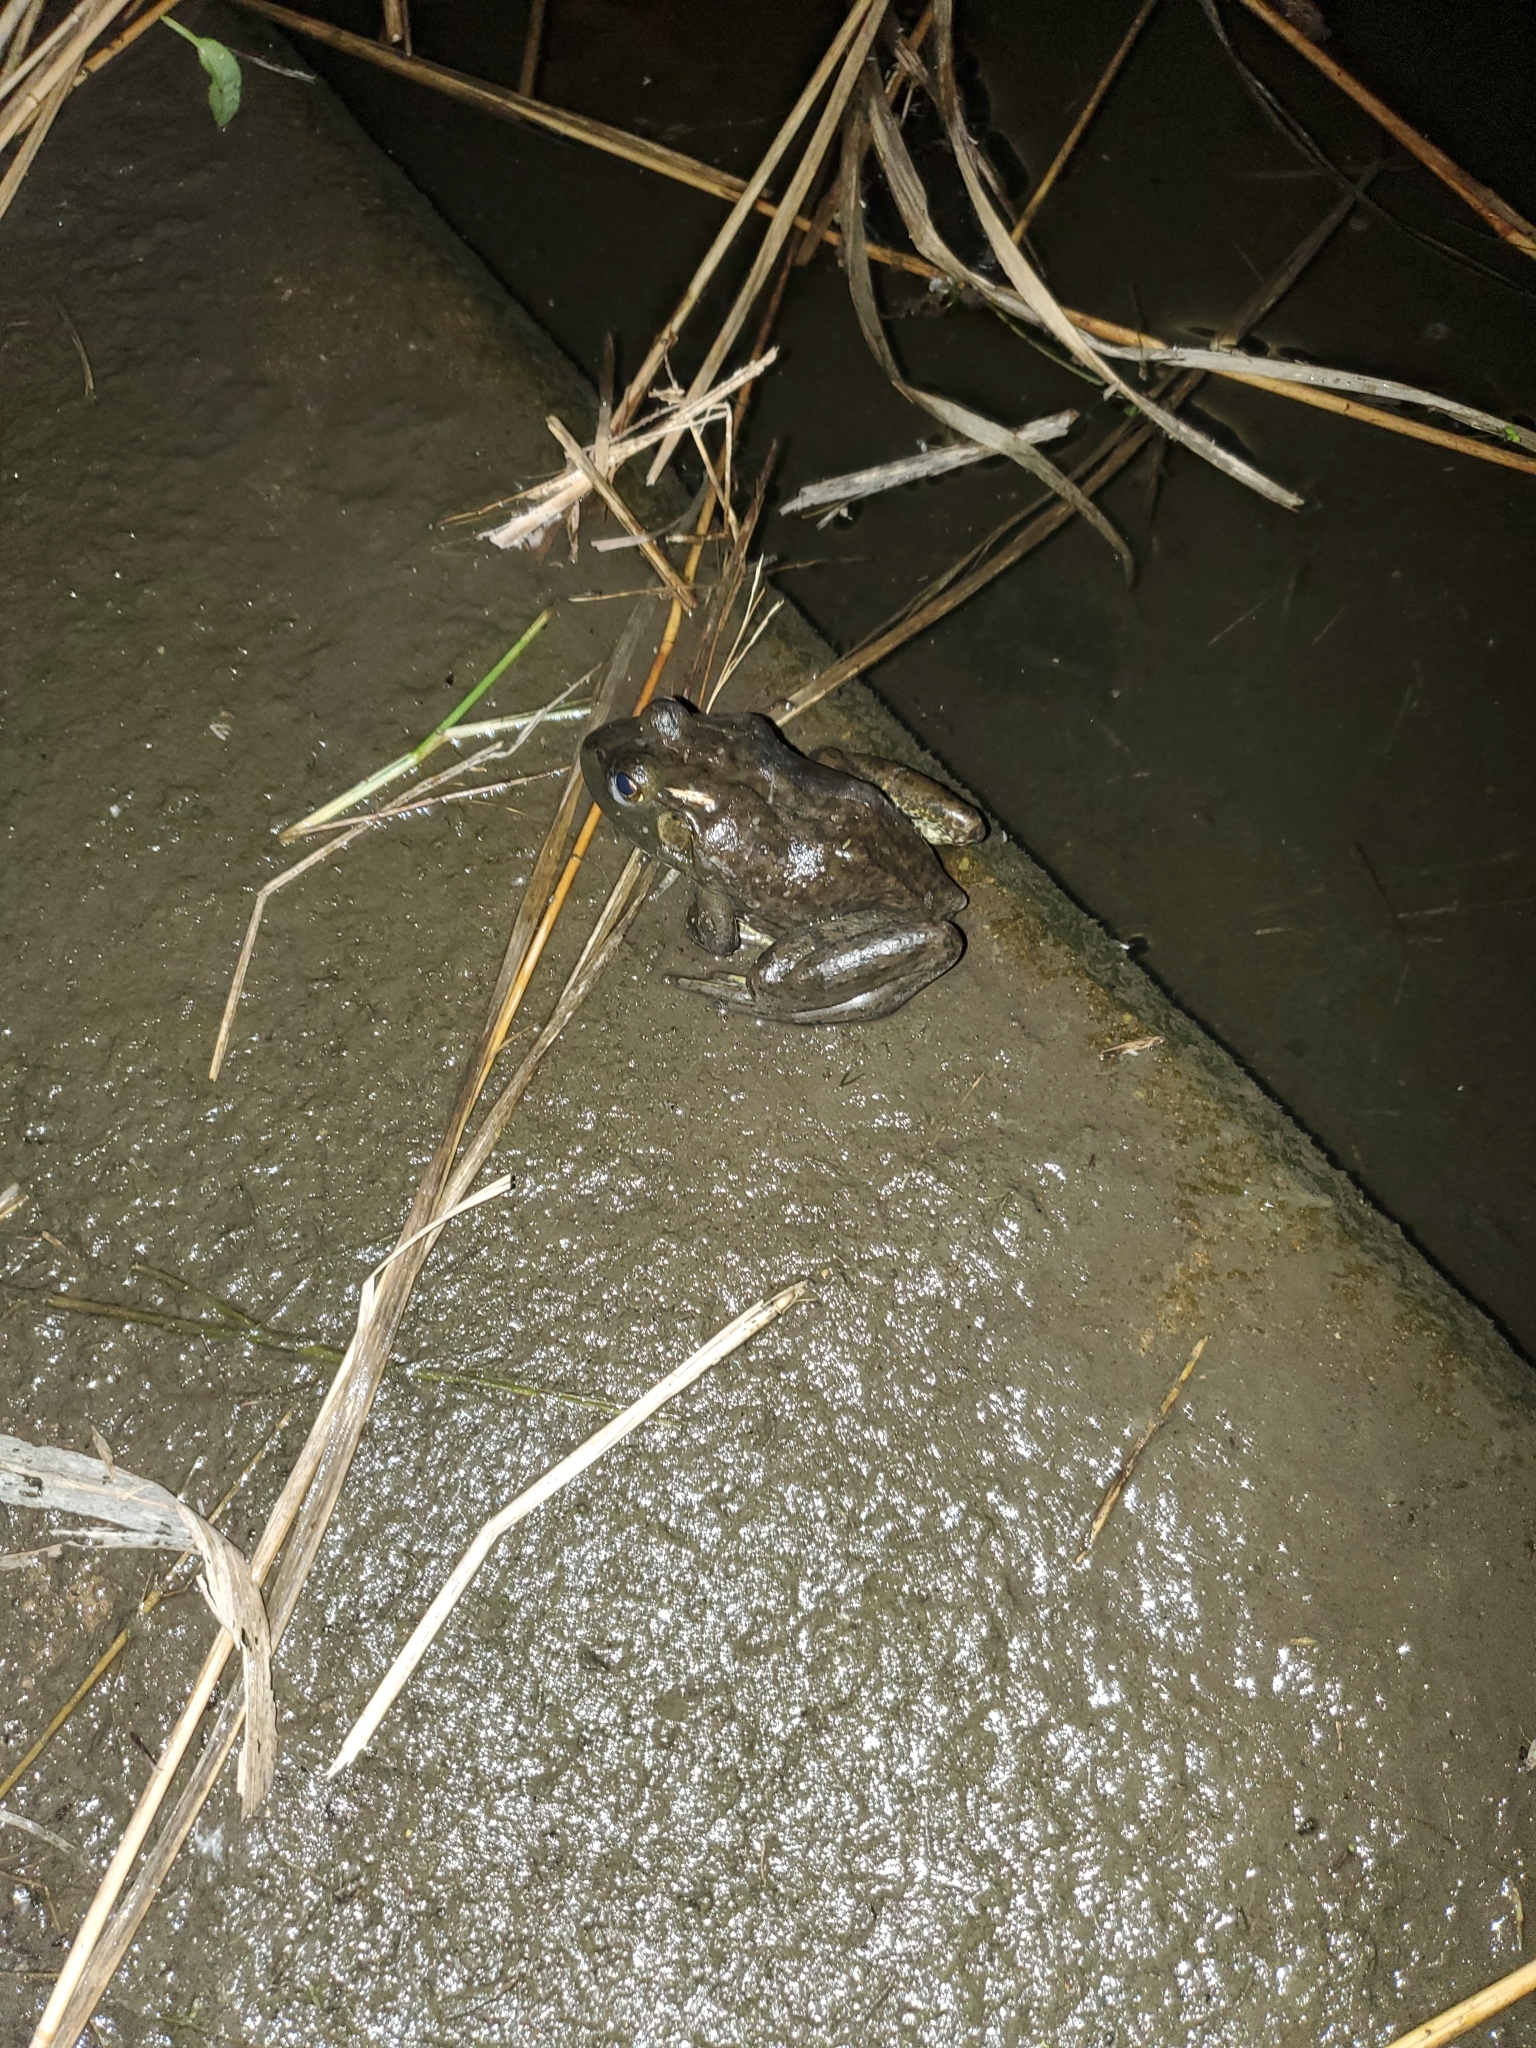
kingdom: Animalia
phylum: Chordata
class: Amphibia
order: Anura
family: Ranidae
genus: Lithobates
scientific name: Lithobates catesbeianus
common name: American bullfrog
